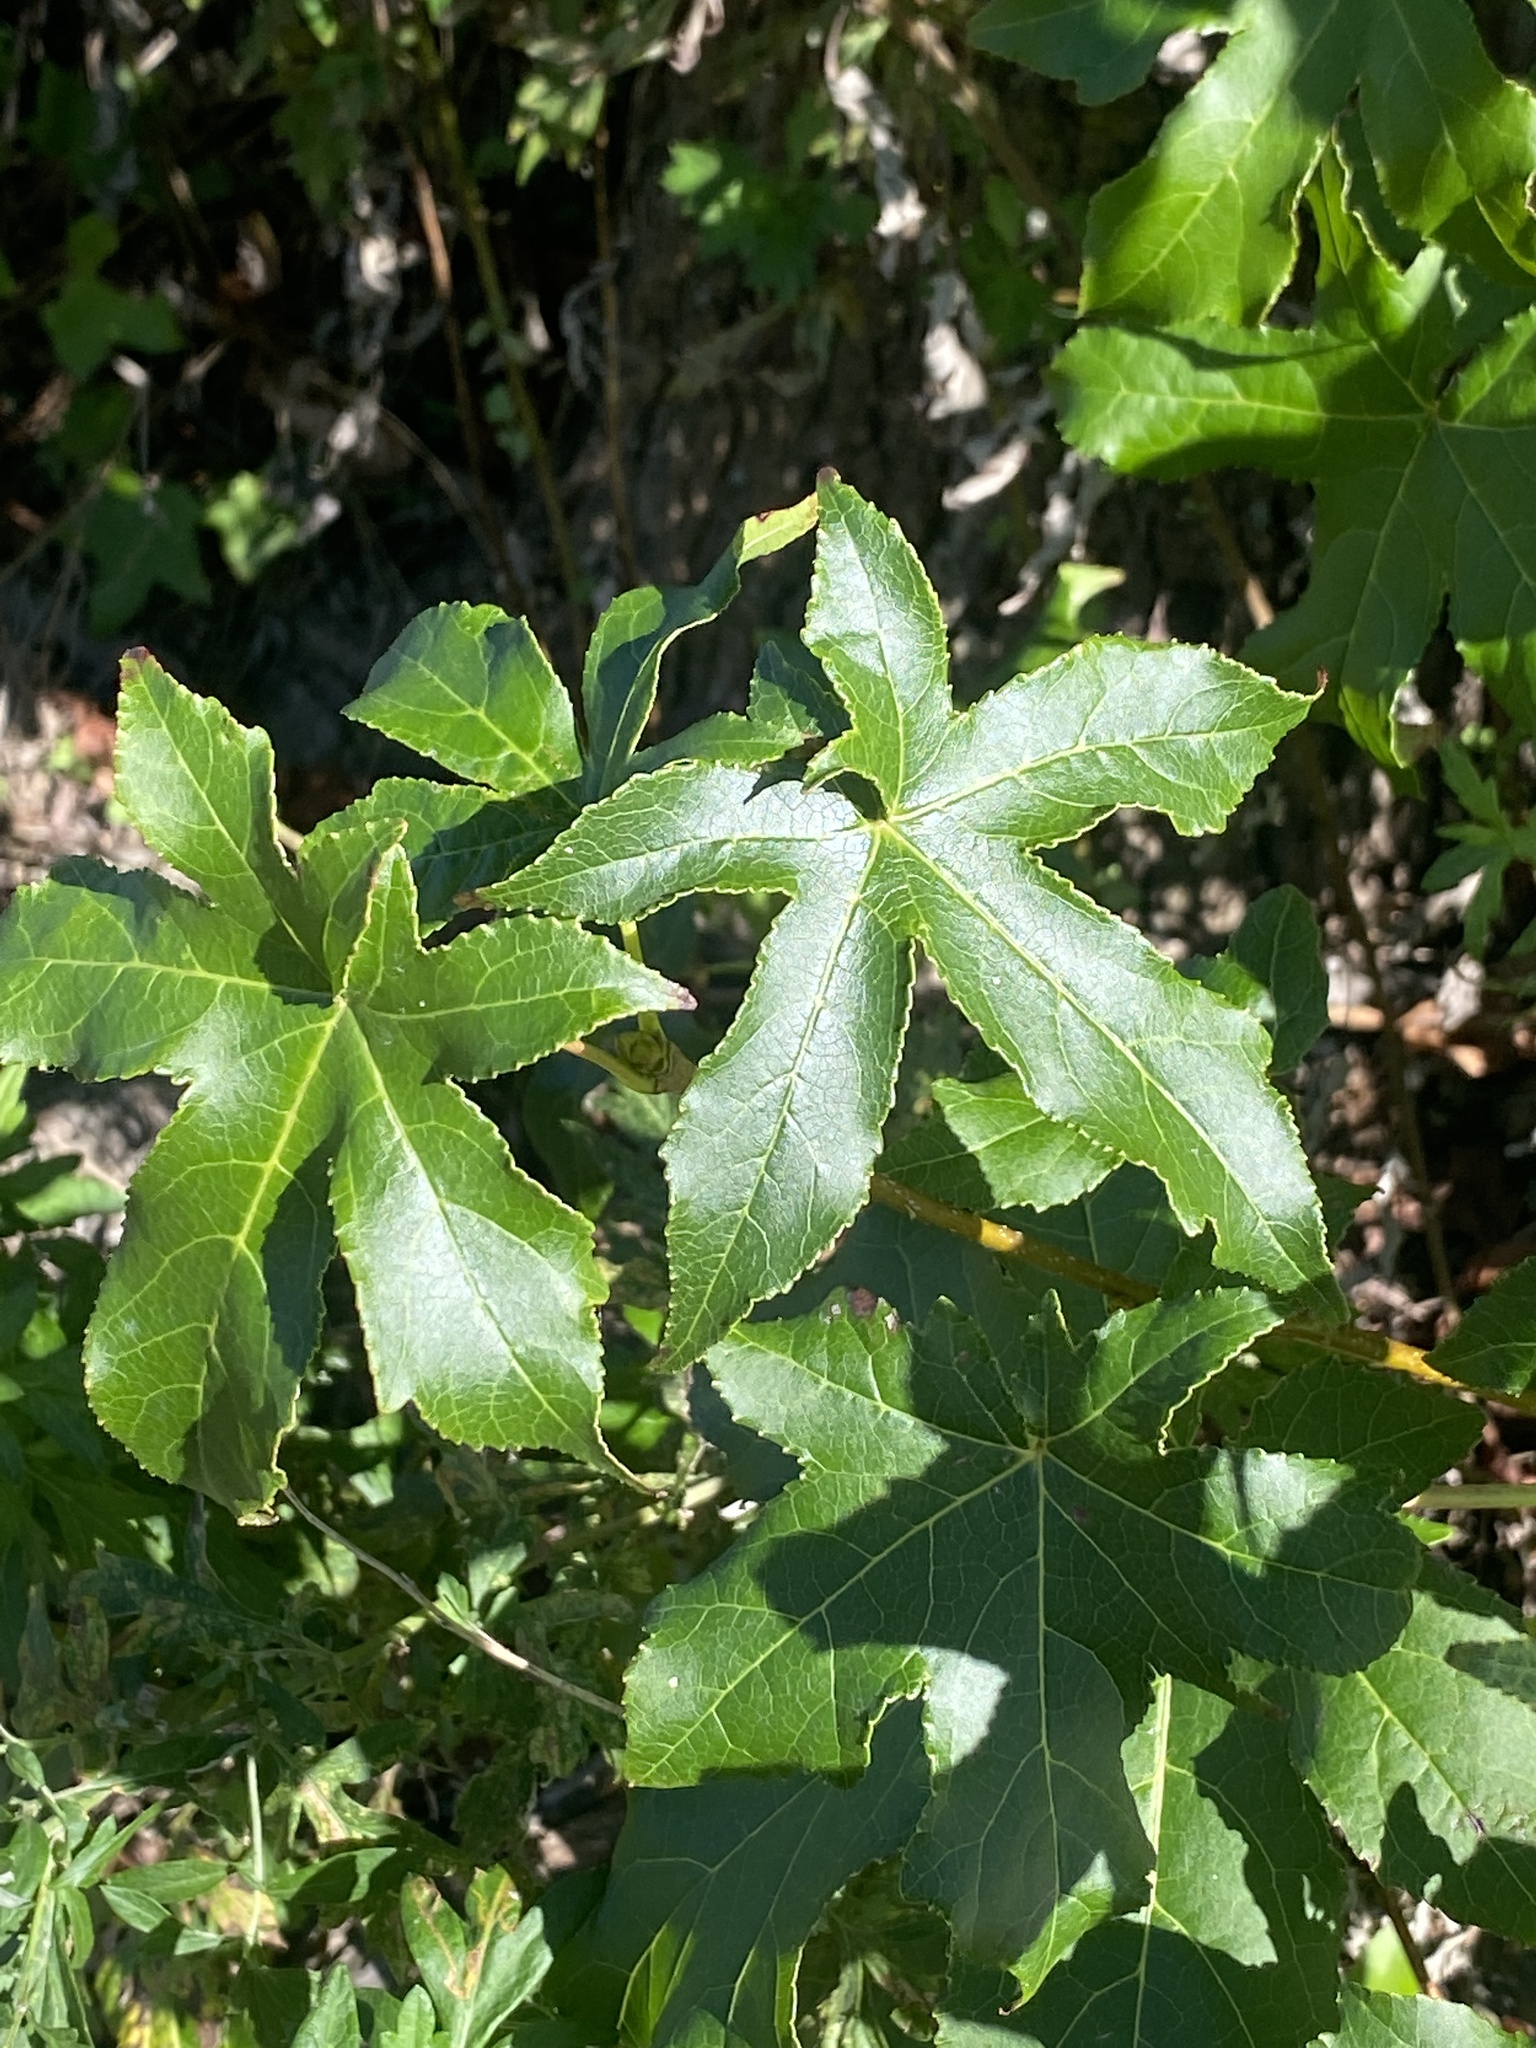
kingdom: Plantae
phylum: Tracheophyta
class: Magnoliopsida
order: Saxifragales
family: Altingiaceae
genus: Liquidambar
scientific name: Liquidambar styraciflua
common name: Sweet gum
